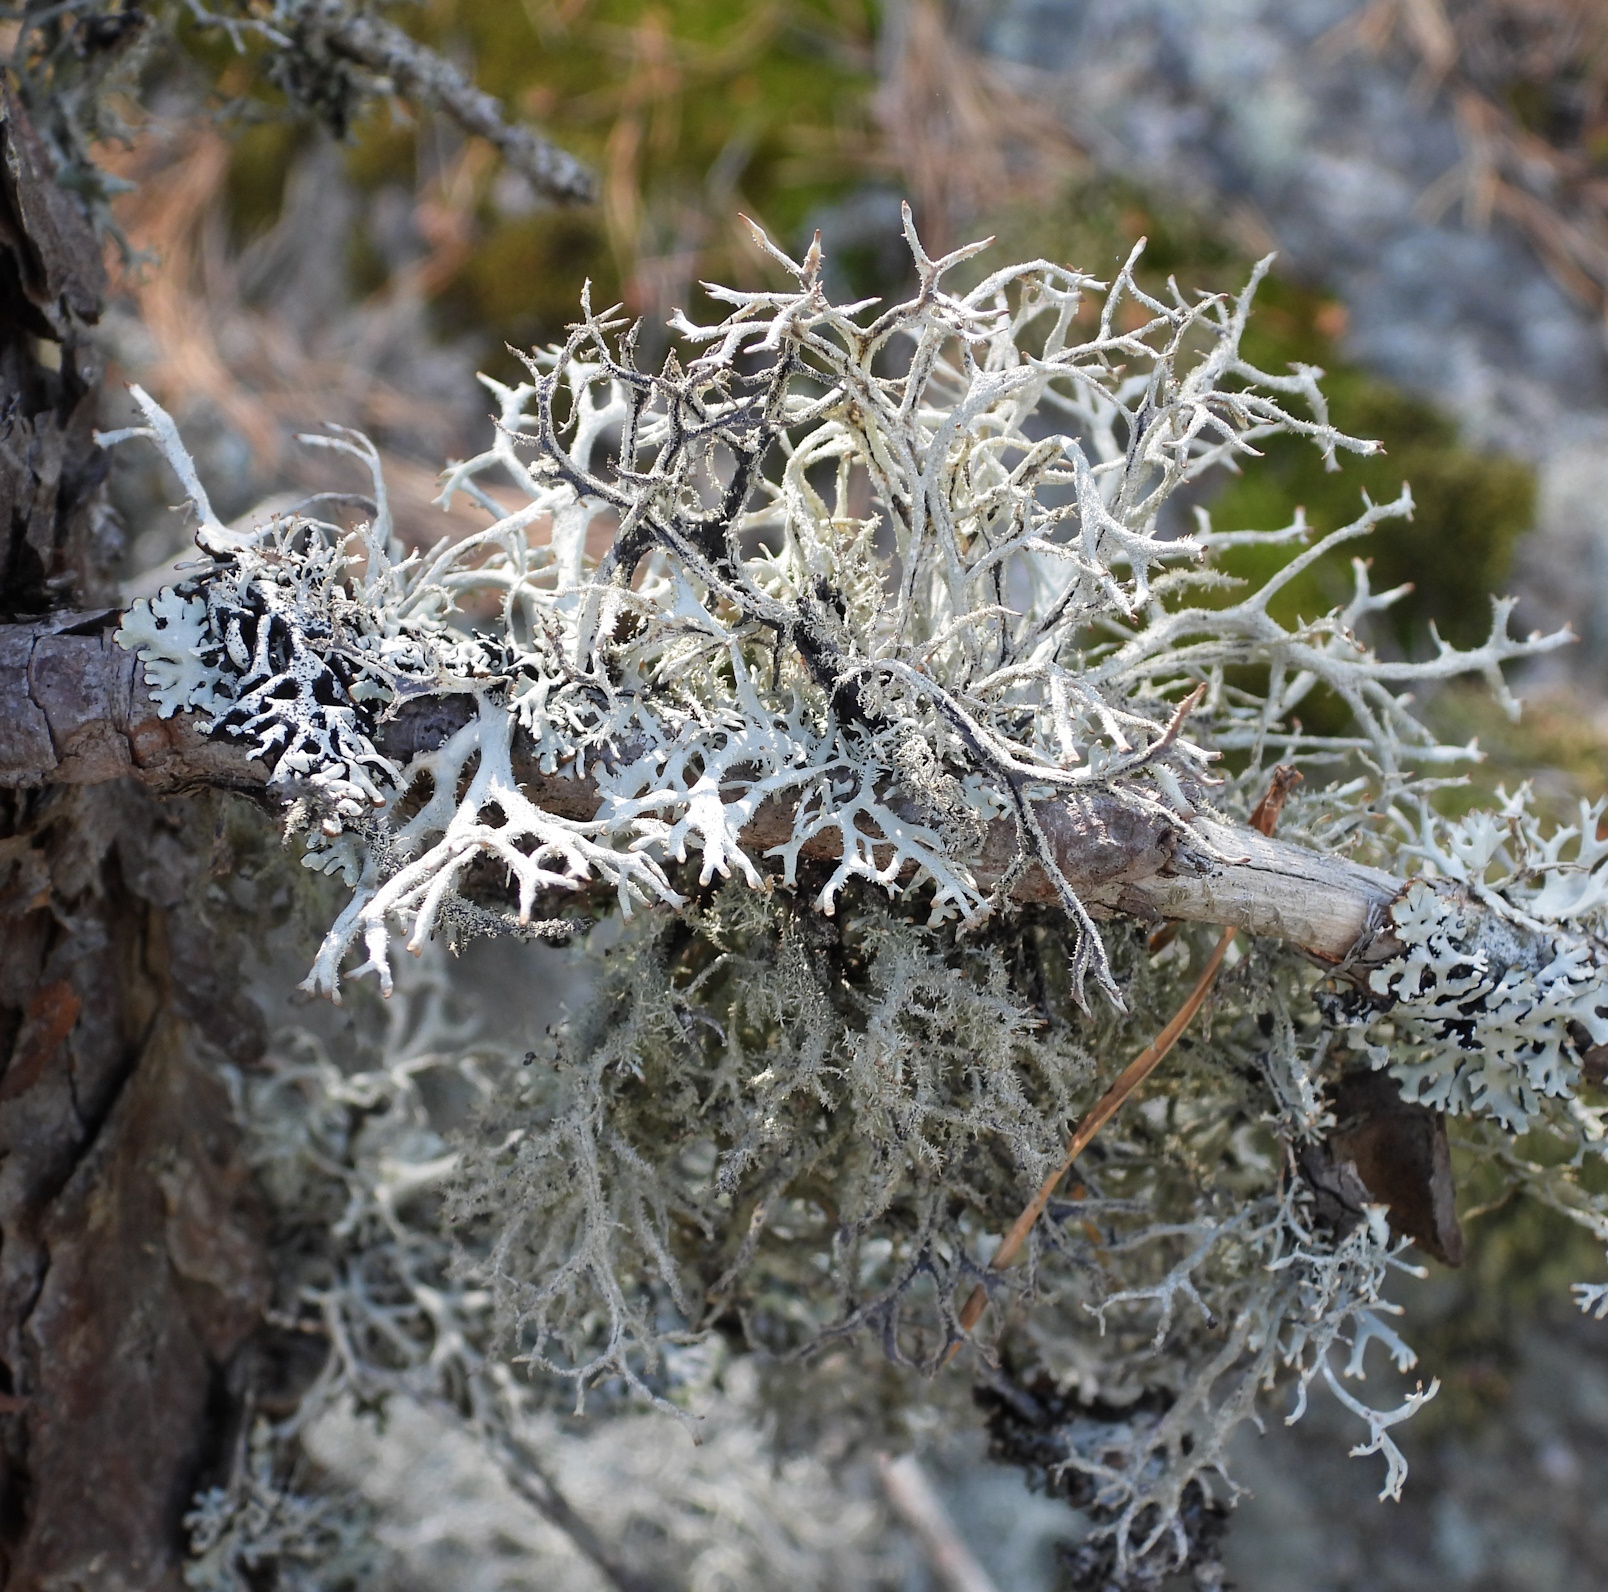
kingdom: Fungi
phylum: Ascomycota
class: Lecanoromycetes
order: Lecanorales
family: Parmeliaceae
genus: Pseudevernia
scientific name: Pseudevernia furfuracea
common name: Tree moss
